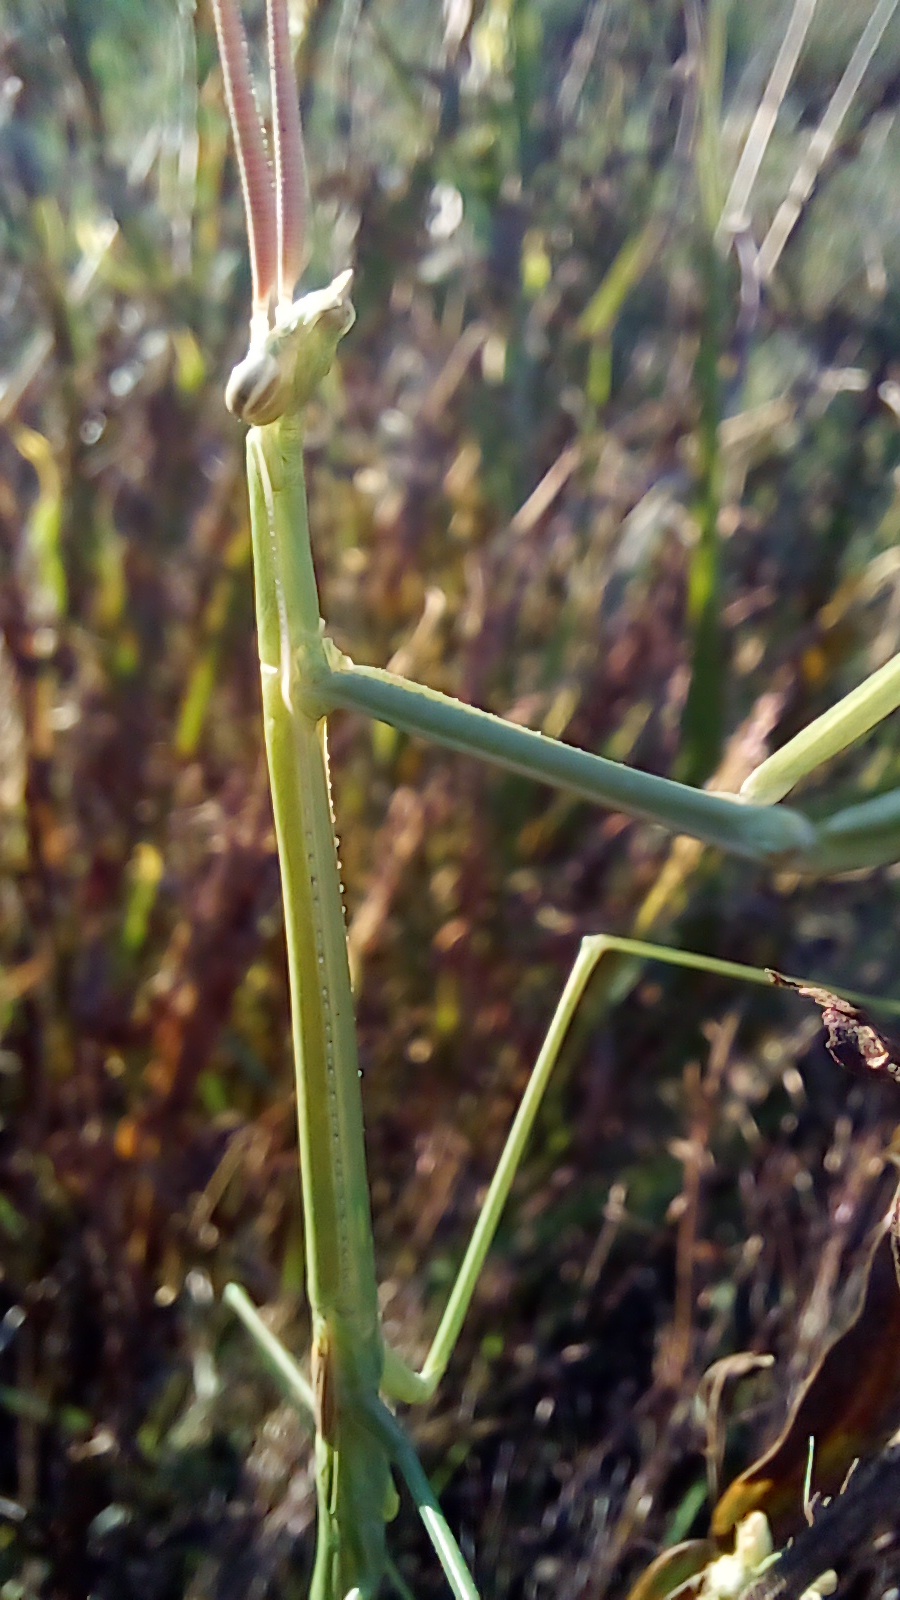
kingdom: Animalia
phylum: Arthropoda
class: Insecta
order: Mantodea
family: Coptopterygidae
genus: Brunneria
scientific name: Brunneria subaptera
